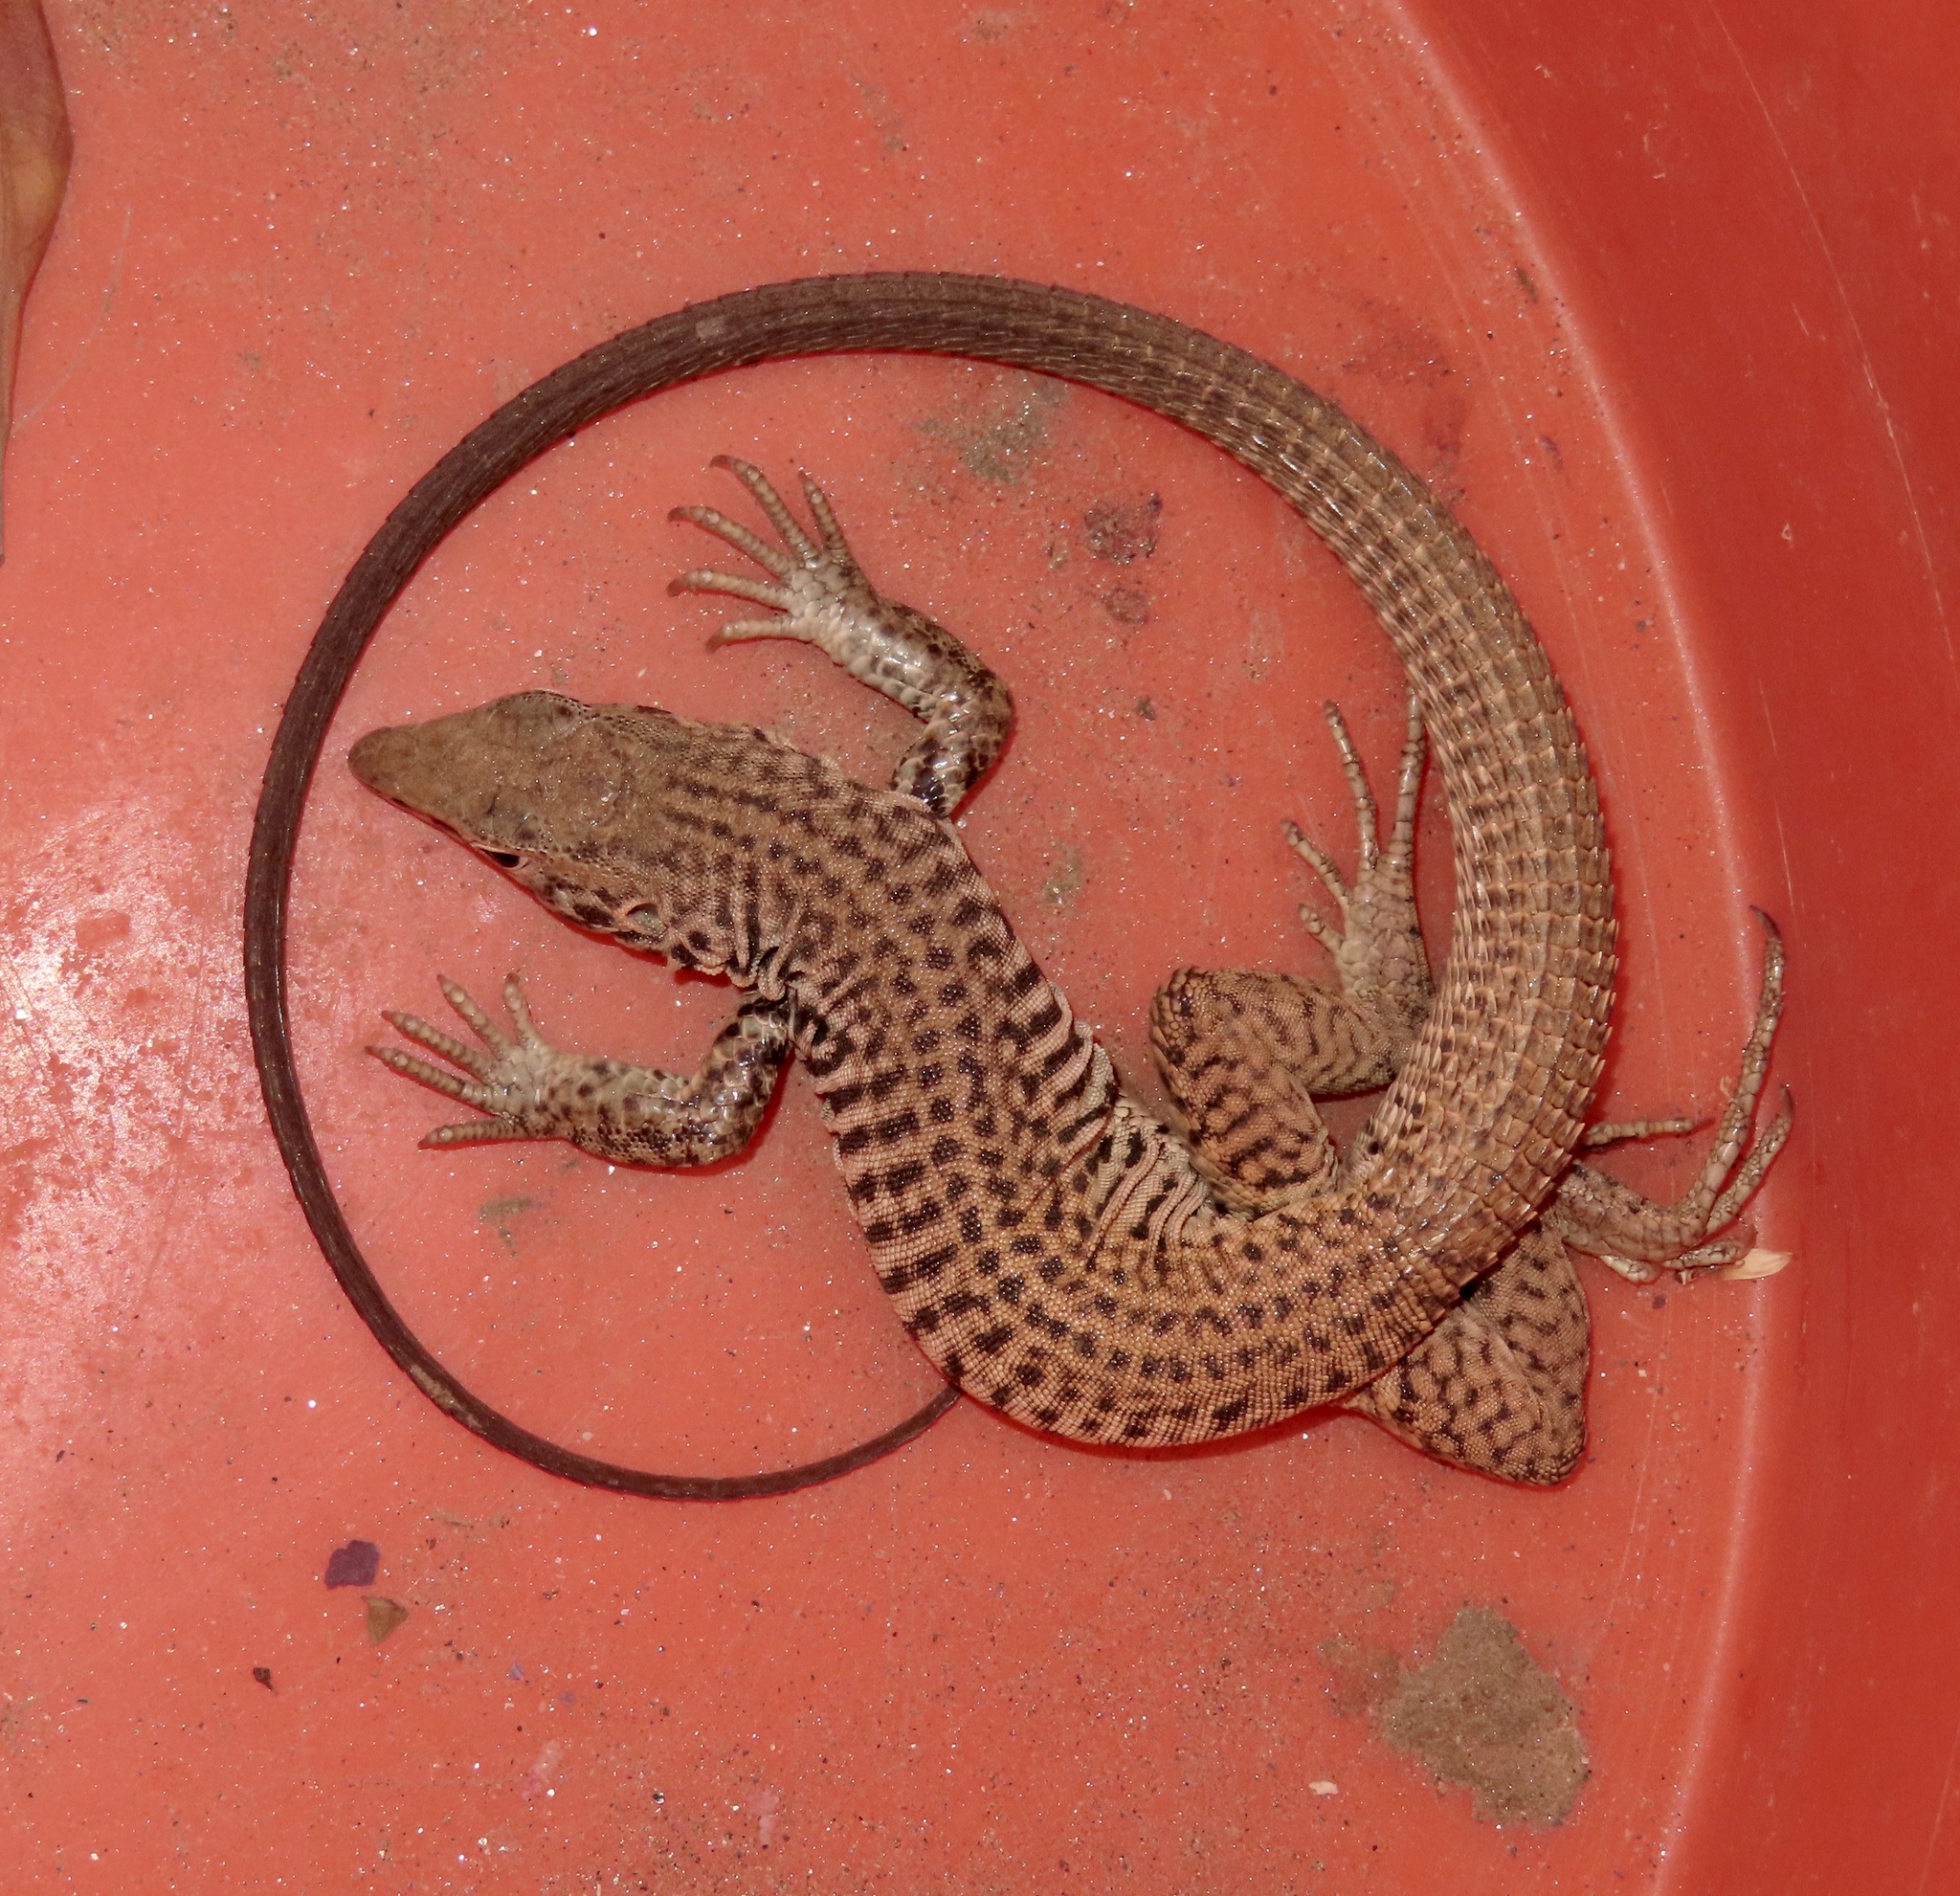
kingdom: Animalia
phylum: Chordata
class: Squamata
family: Teiidae
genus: Aspidoscelis
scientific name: Aspidoscelis tigris
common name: Tiger whiptail
